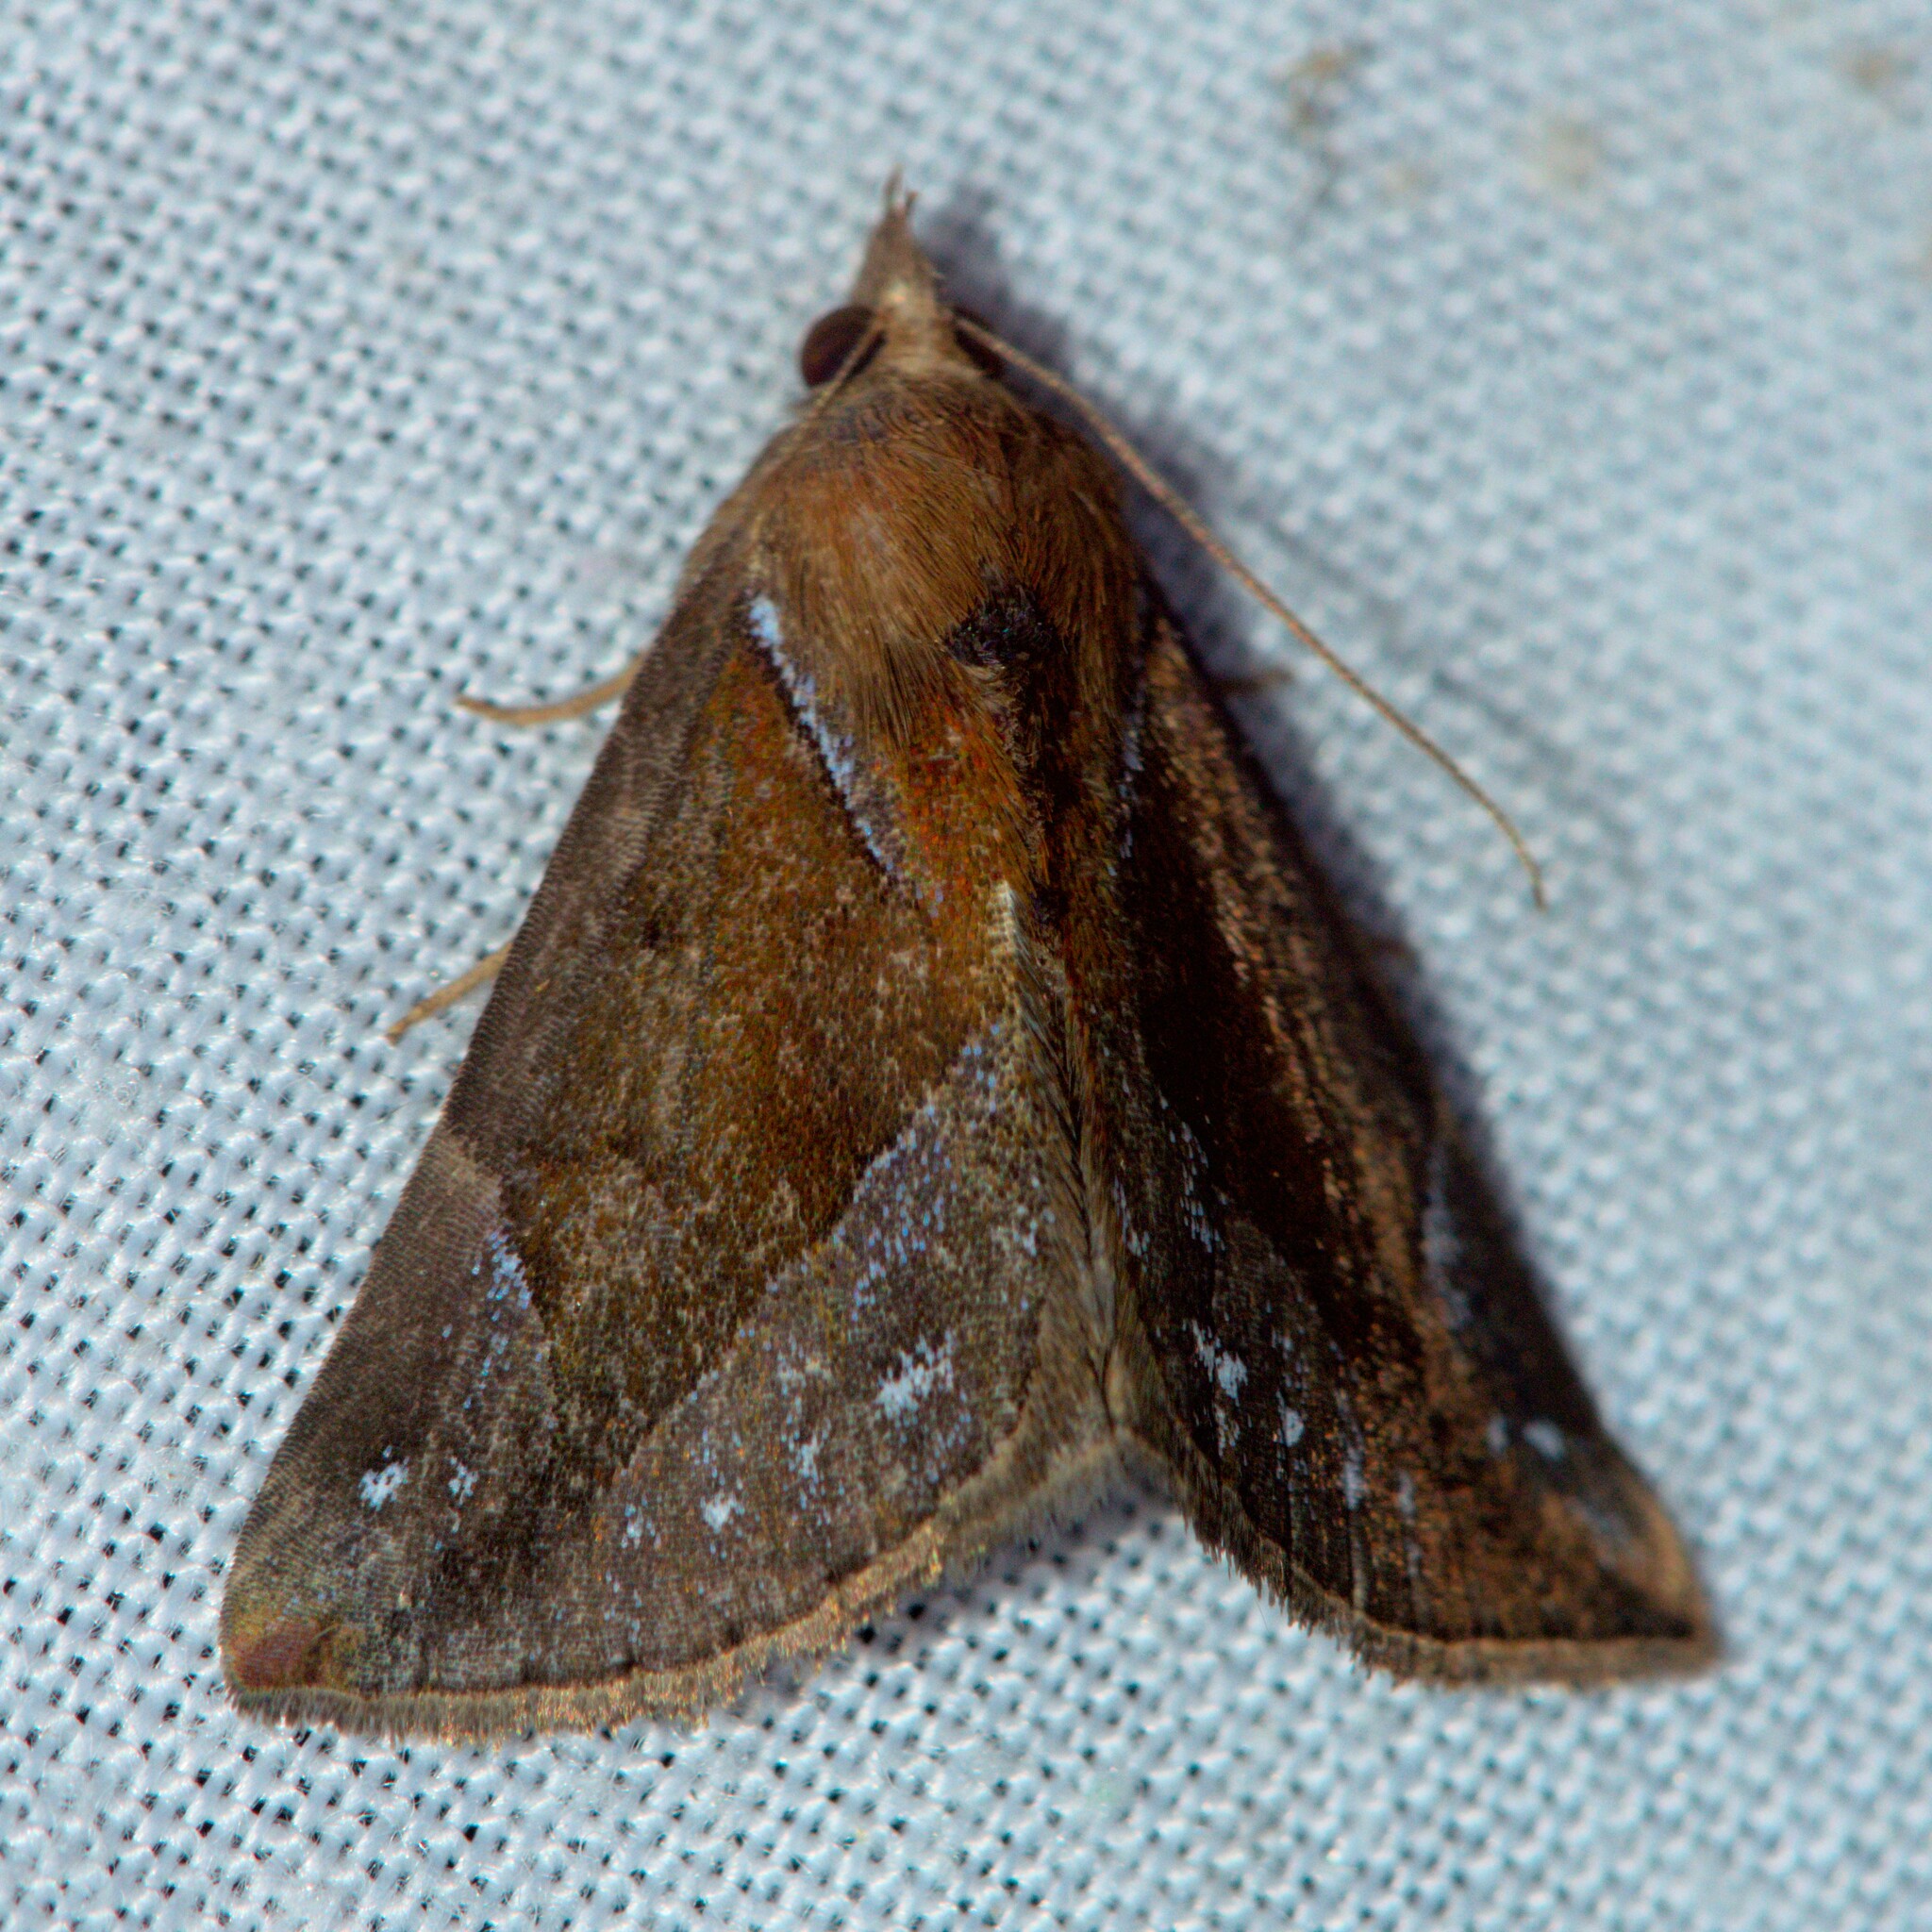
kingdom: Animalia
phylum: Arthropoda
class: Insecta
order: Lepidoptera
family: Erebidae
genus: Hypena
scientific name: Hypena rhombalis
